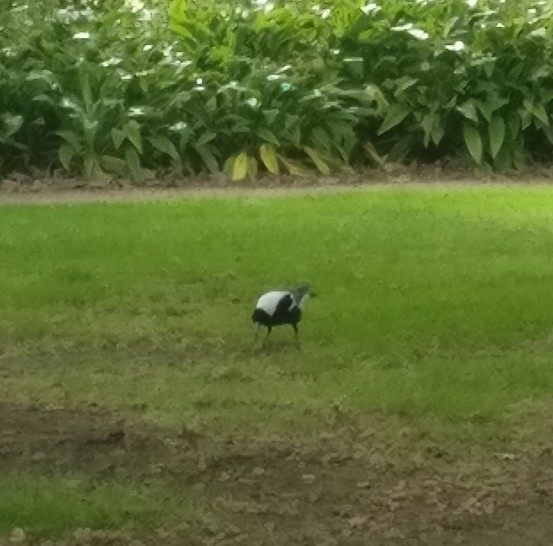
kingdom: Animalia
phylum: Chordata
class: Aves
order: Passeriformes
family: Cracticidae
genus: Gymnorhina
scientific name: Gymnorhina tibicen
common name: Australian magpie
